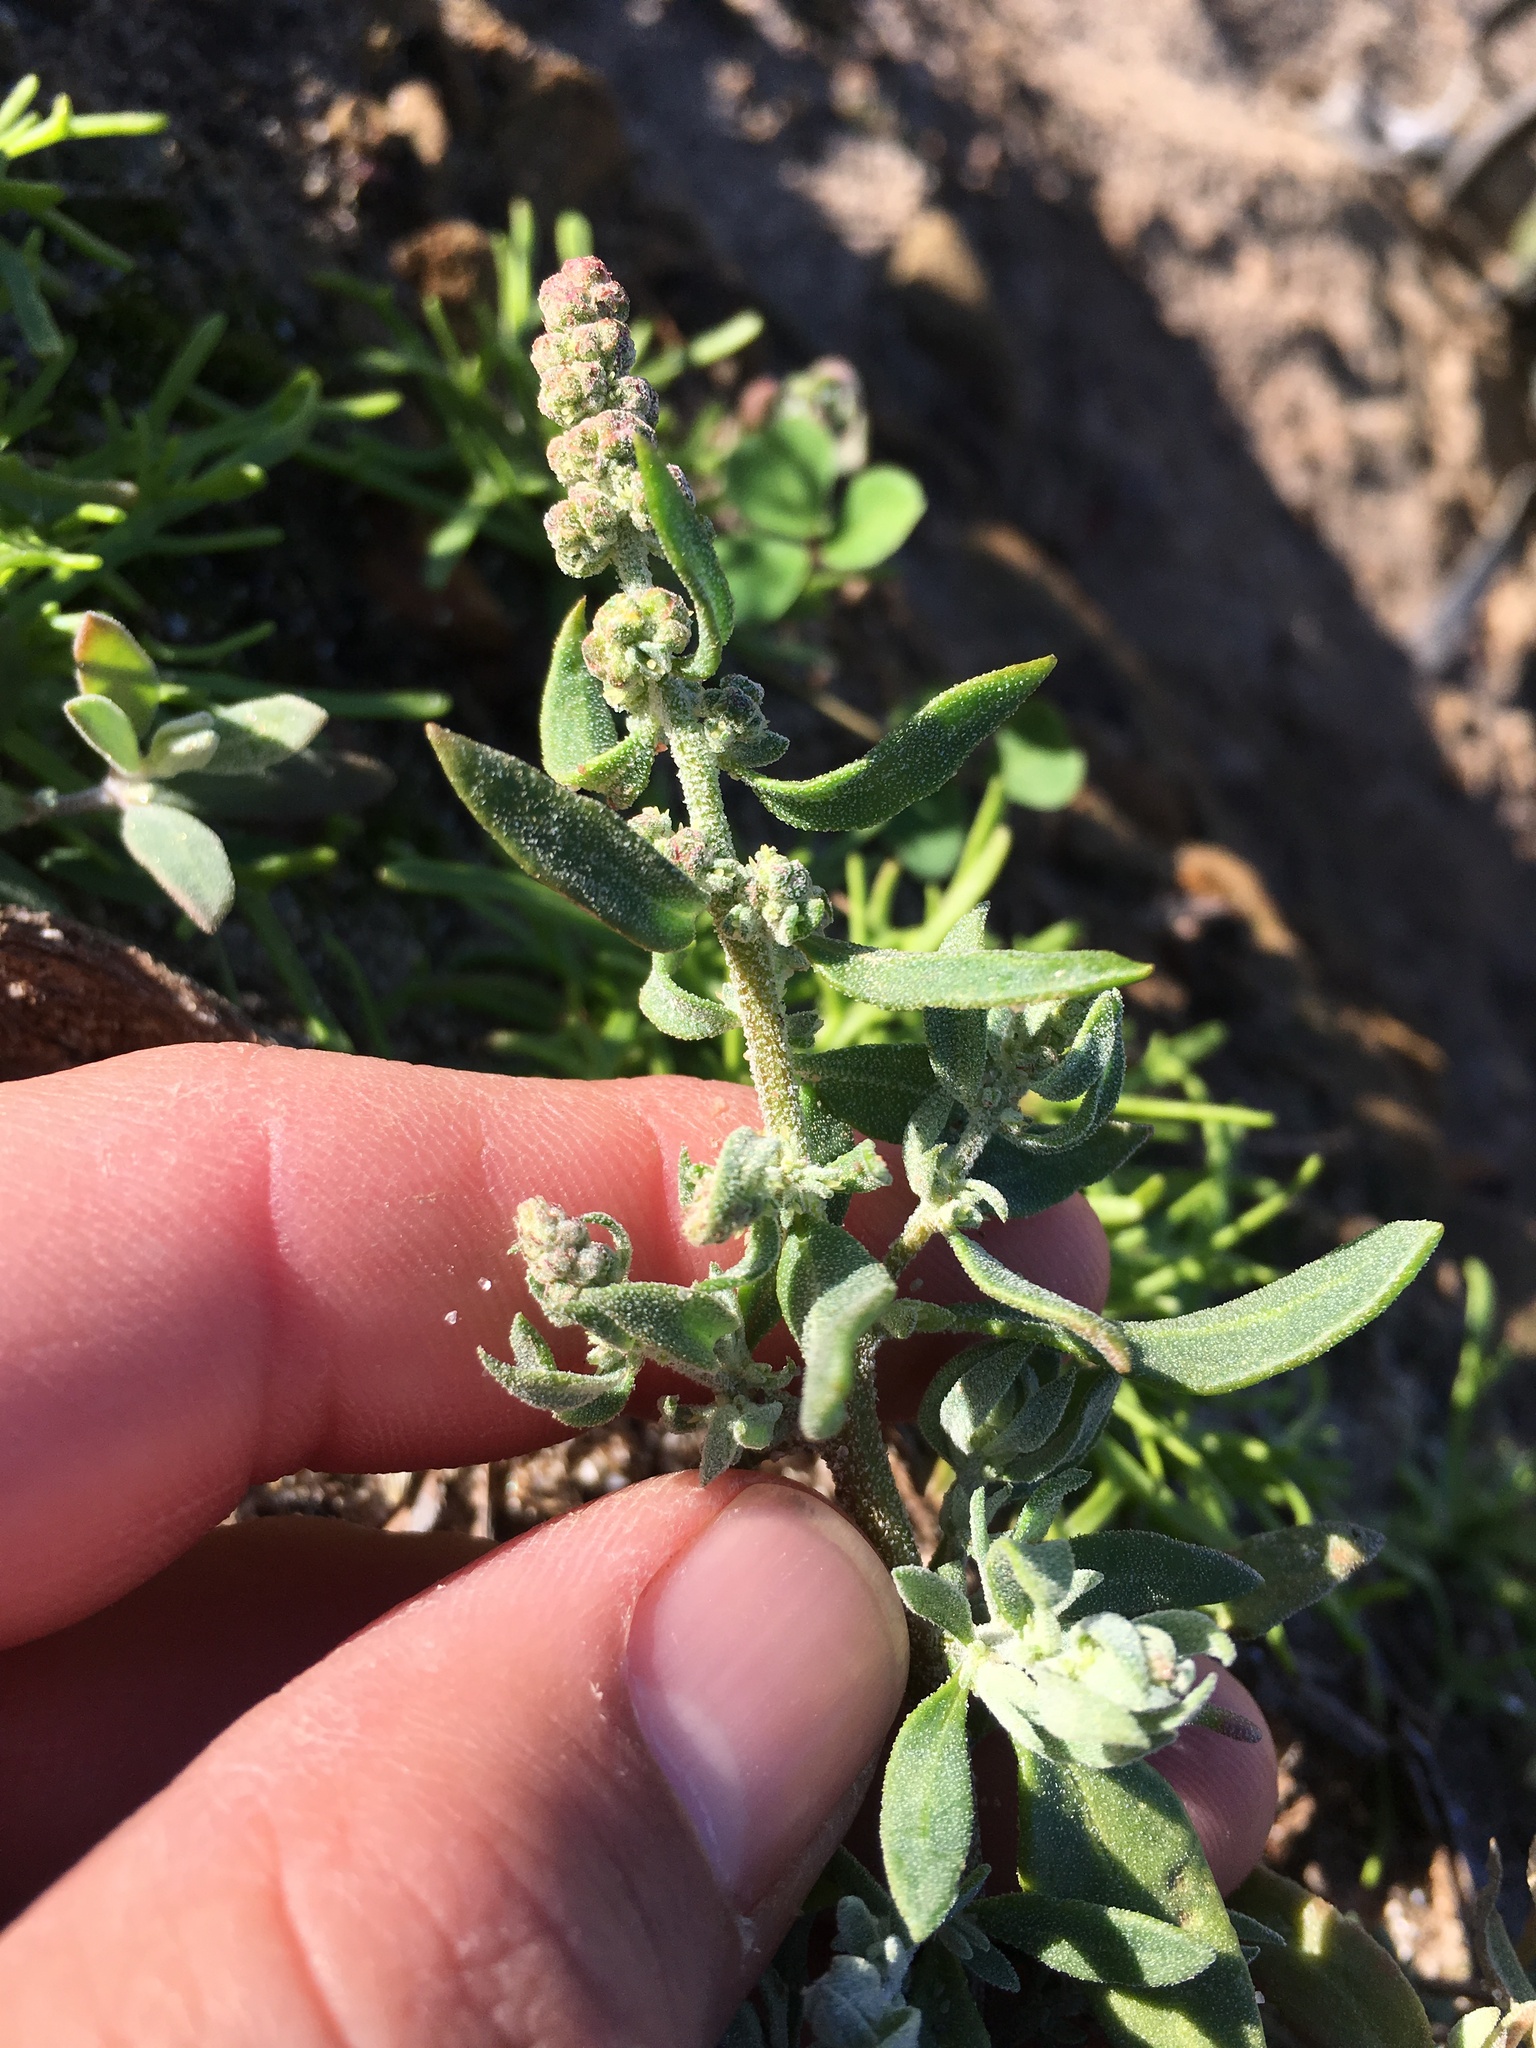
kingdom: Plantae
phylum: Tracheophyta
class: Magnoliopsida
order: Caryophyllales
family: Amaranthaceae
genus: Extriplex
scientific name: Extriplex californica
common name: California saltbush
